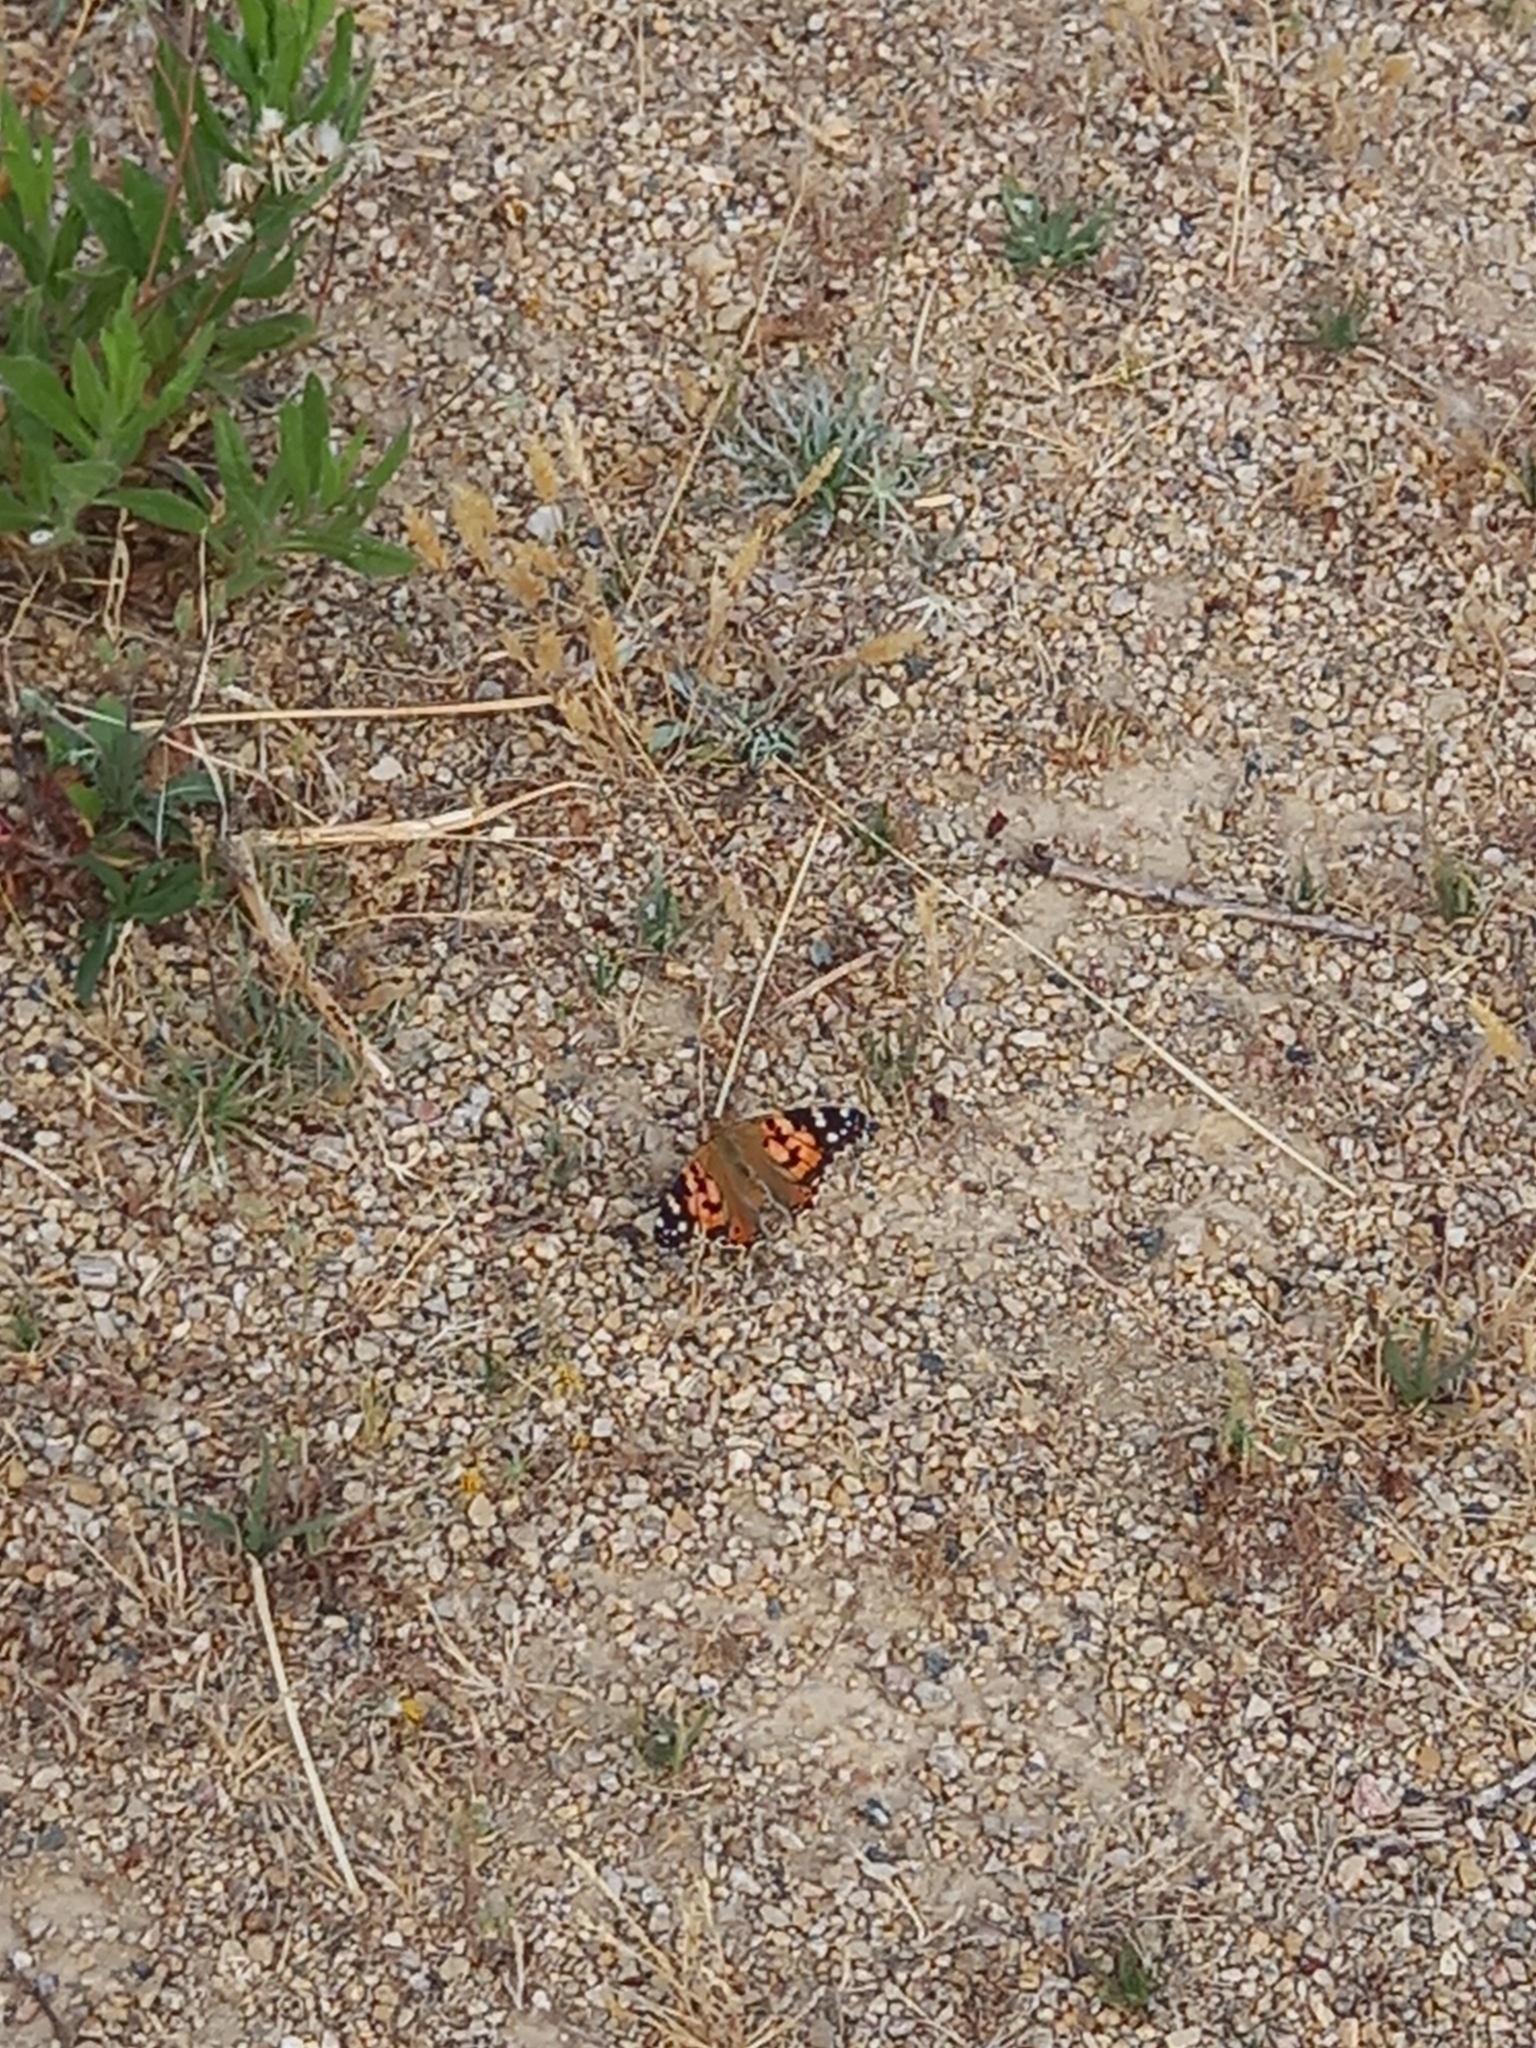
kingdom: Animalia
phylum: Arthropoda
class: Insecta
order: Lepidoptera
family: Nymphalidae
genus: Vanessa
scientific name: Vanessa cardui
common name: Painted lady
